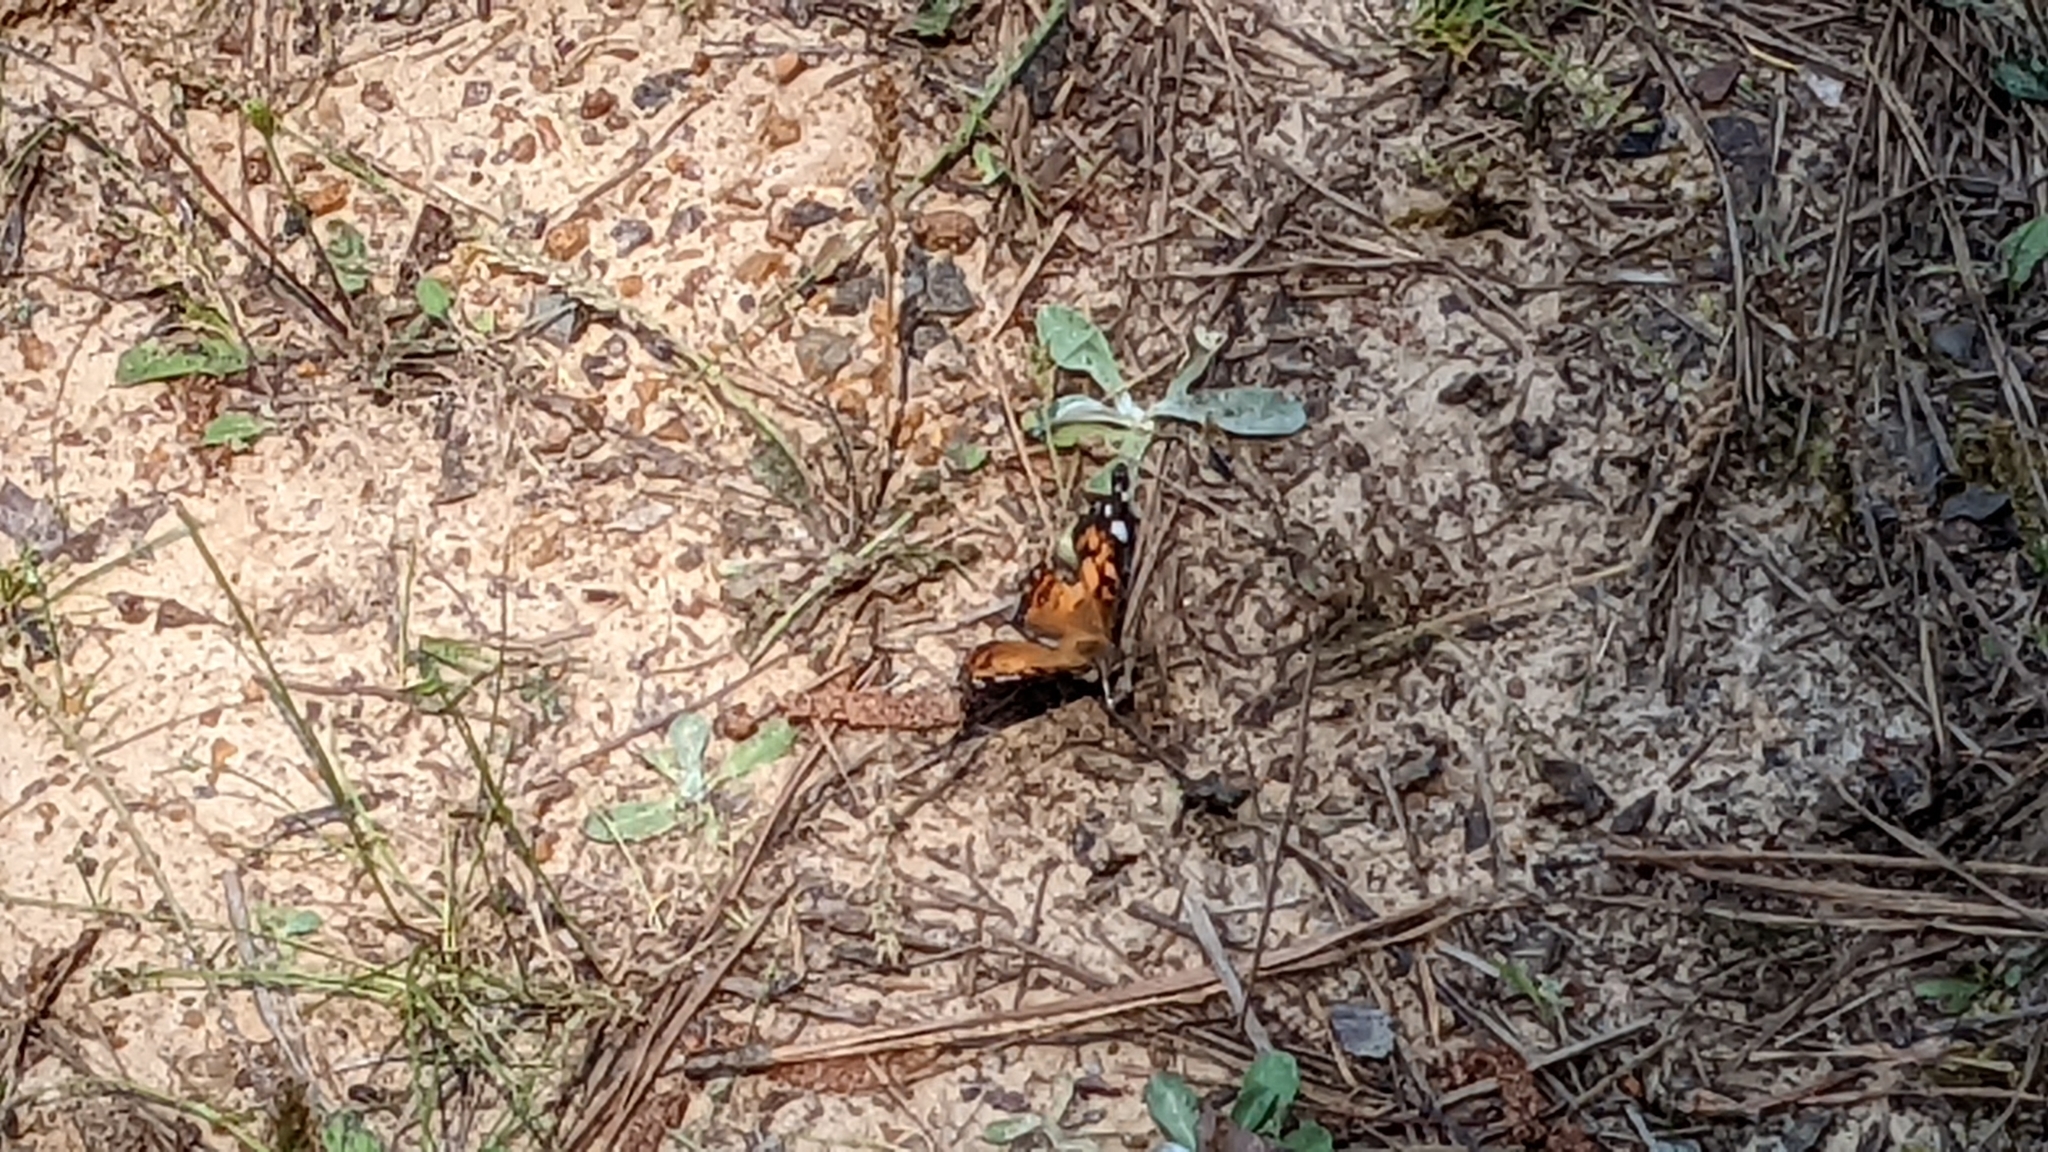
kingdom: Animalia
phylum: Arthropoda
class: Insecta
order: Lepidoptera
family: Nymphalidae
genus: Vanessa
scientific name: Vanessa virginiensis
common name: American lady
